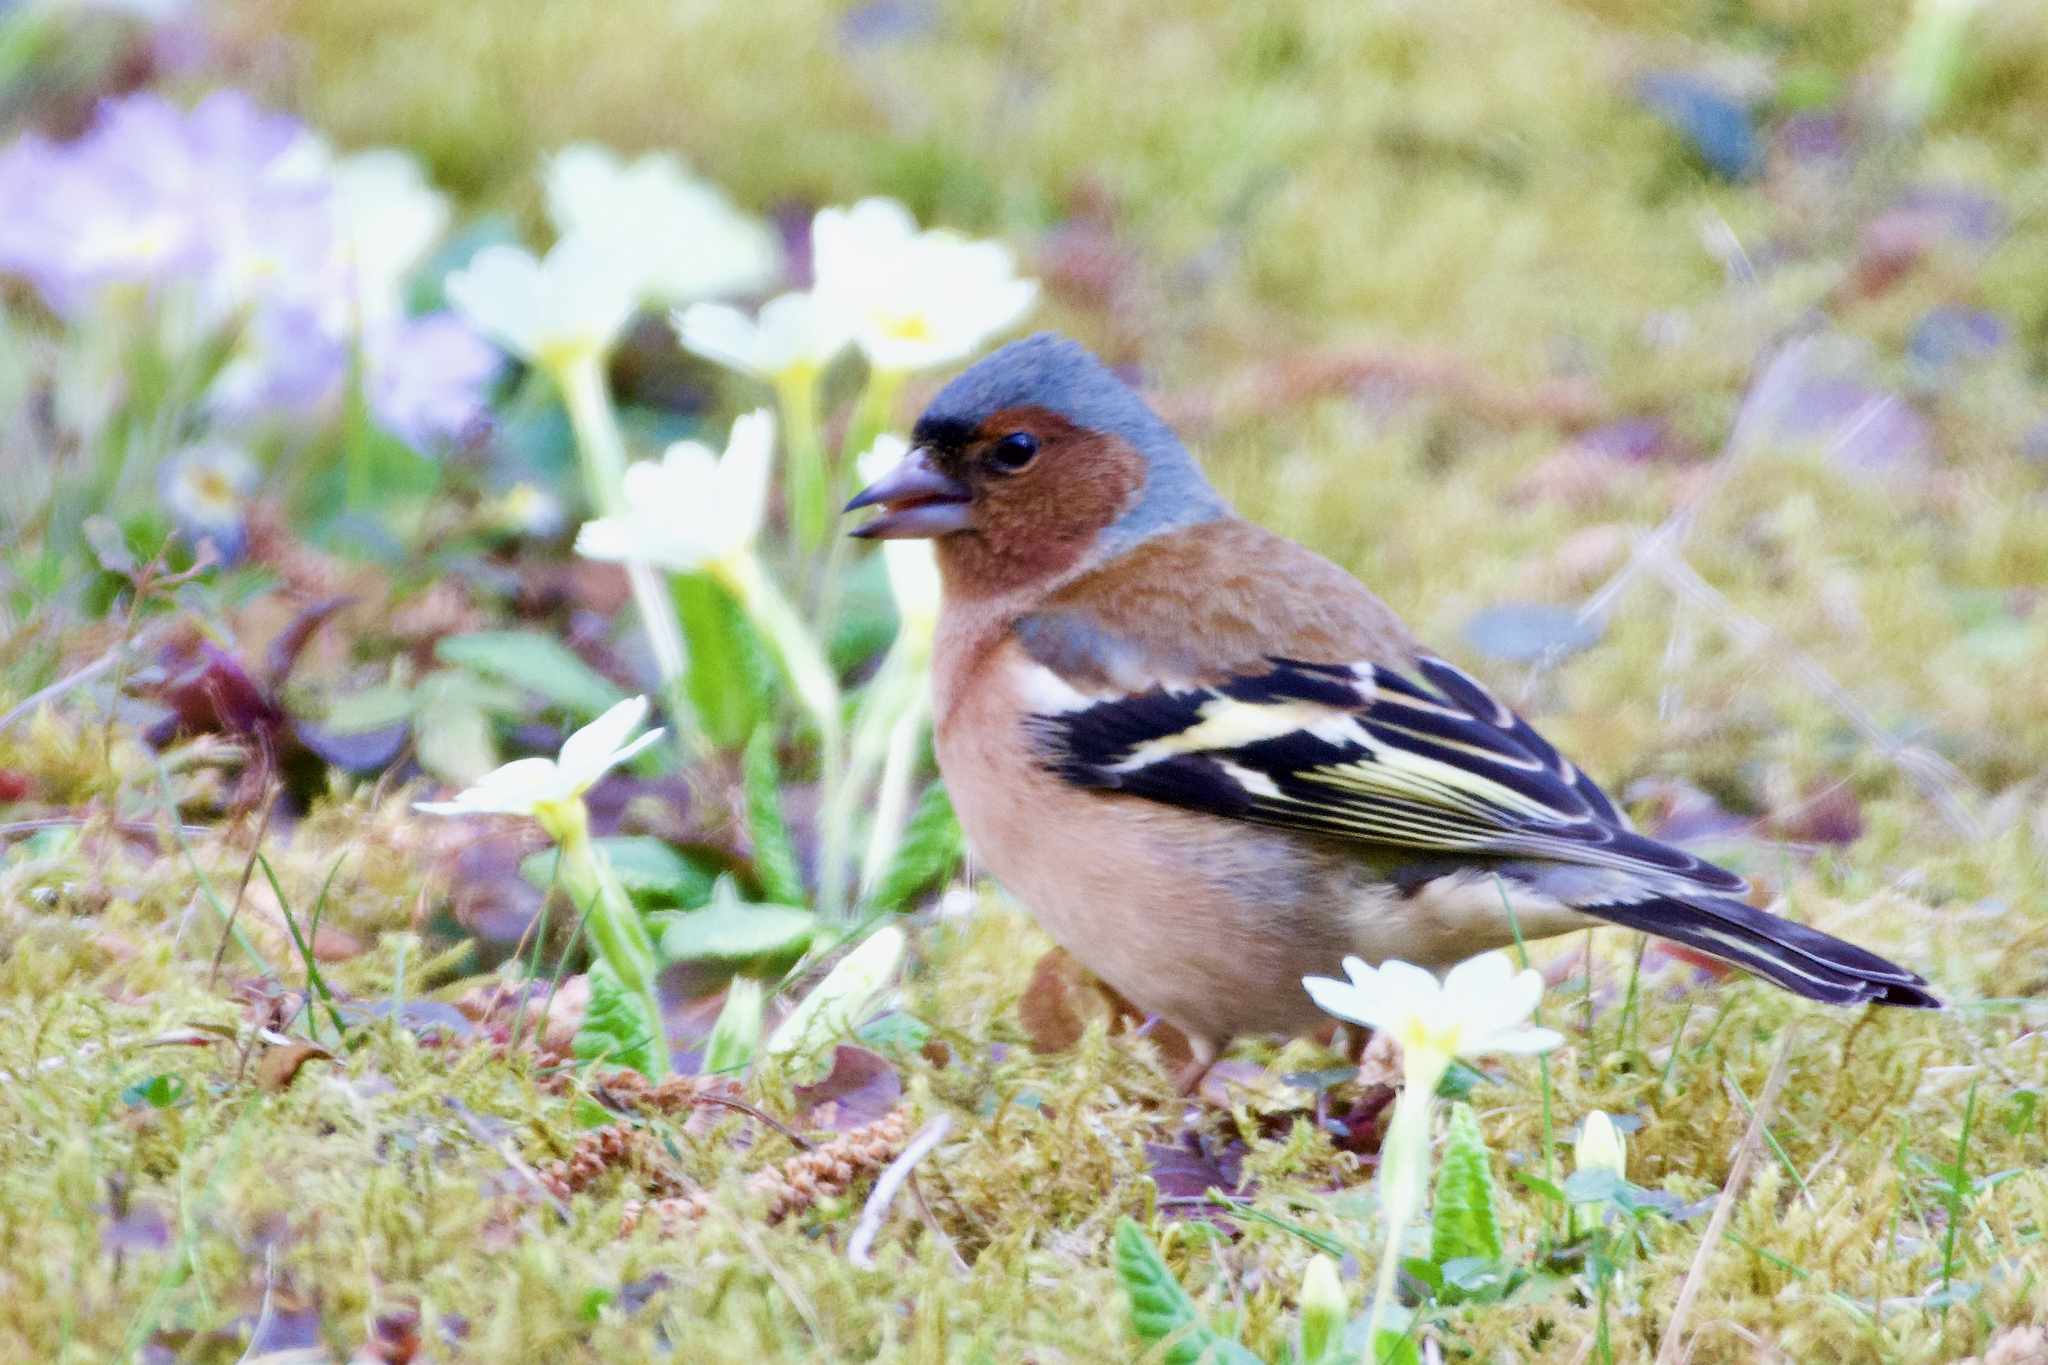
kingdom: Animalia
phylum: Chordata
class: Aves
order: Passeriformes
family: Fringillidae
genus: Fringilla
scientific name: Fringilla coelebs
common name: Common chaffinch
